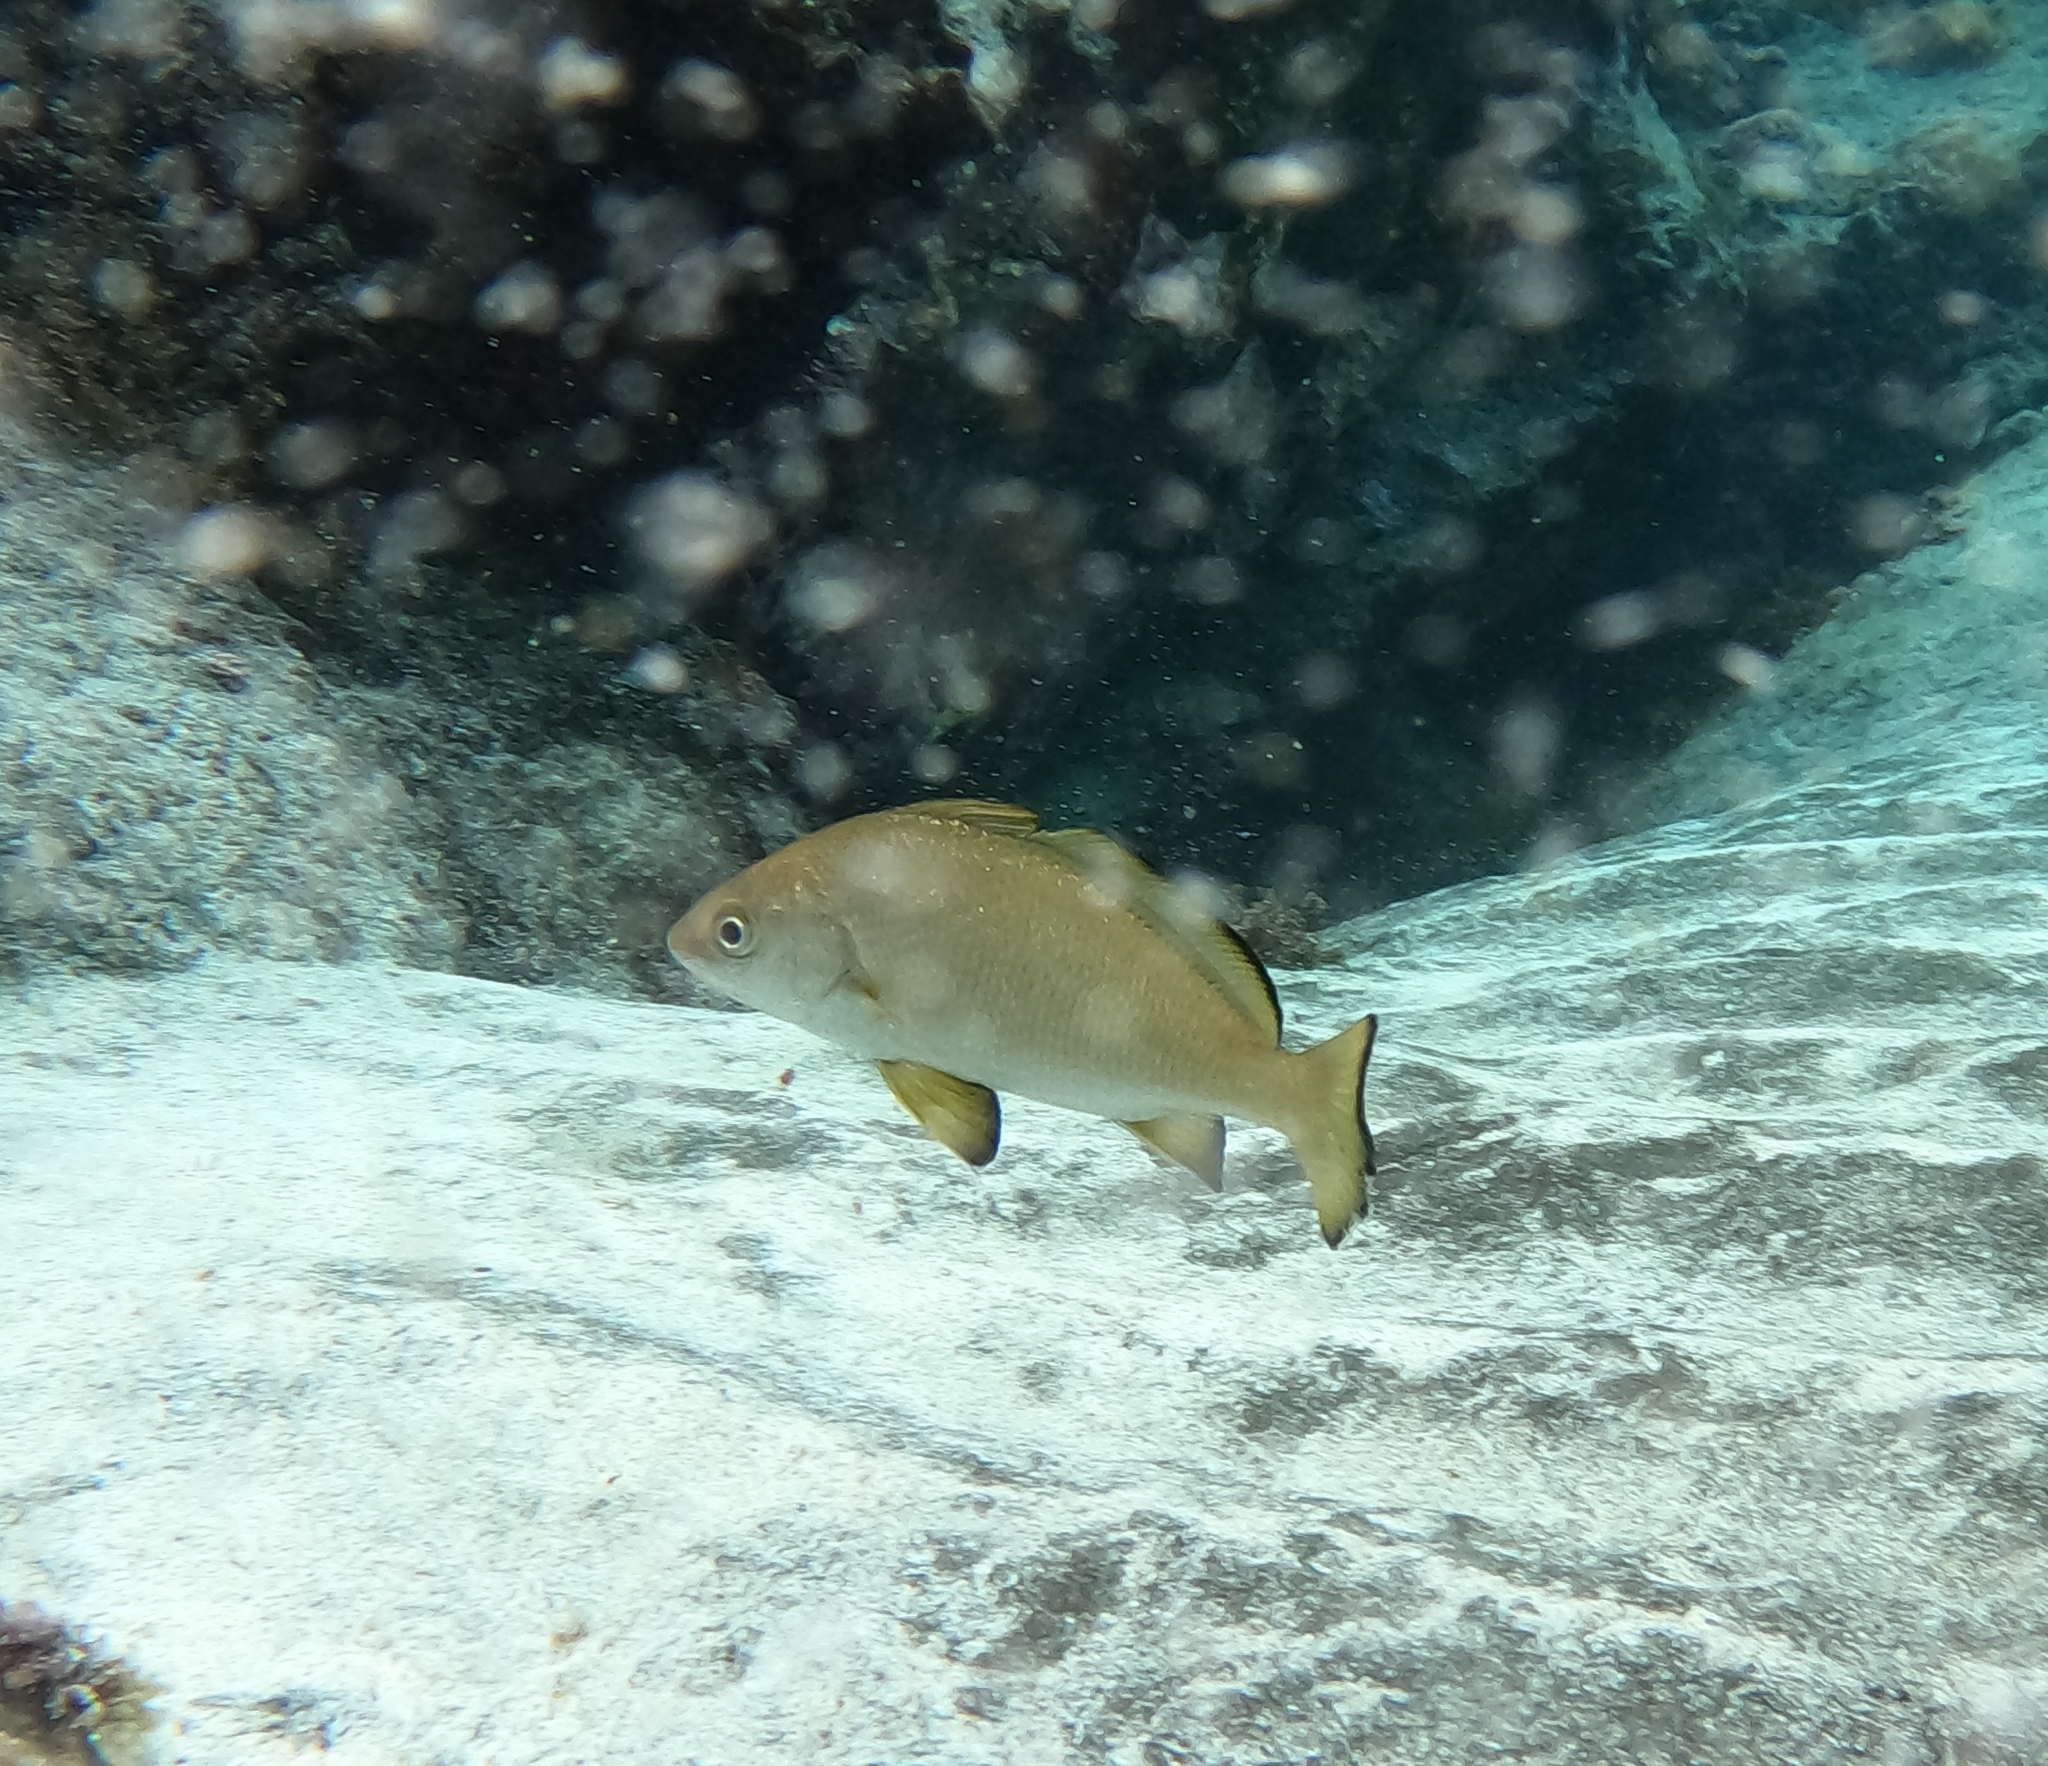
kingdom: Animalia
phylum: Chordata
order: Perciformes
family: Sciaenidae
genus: Umbrina
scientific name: Umbrina canariensis
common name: Baardman
